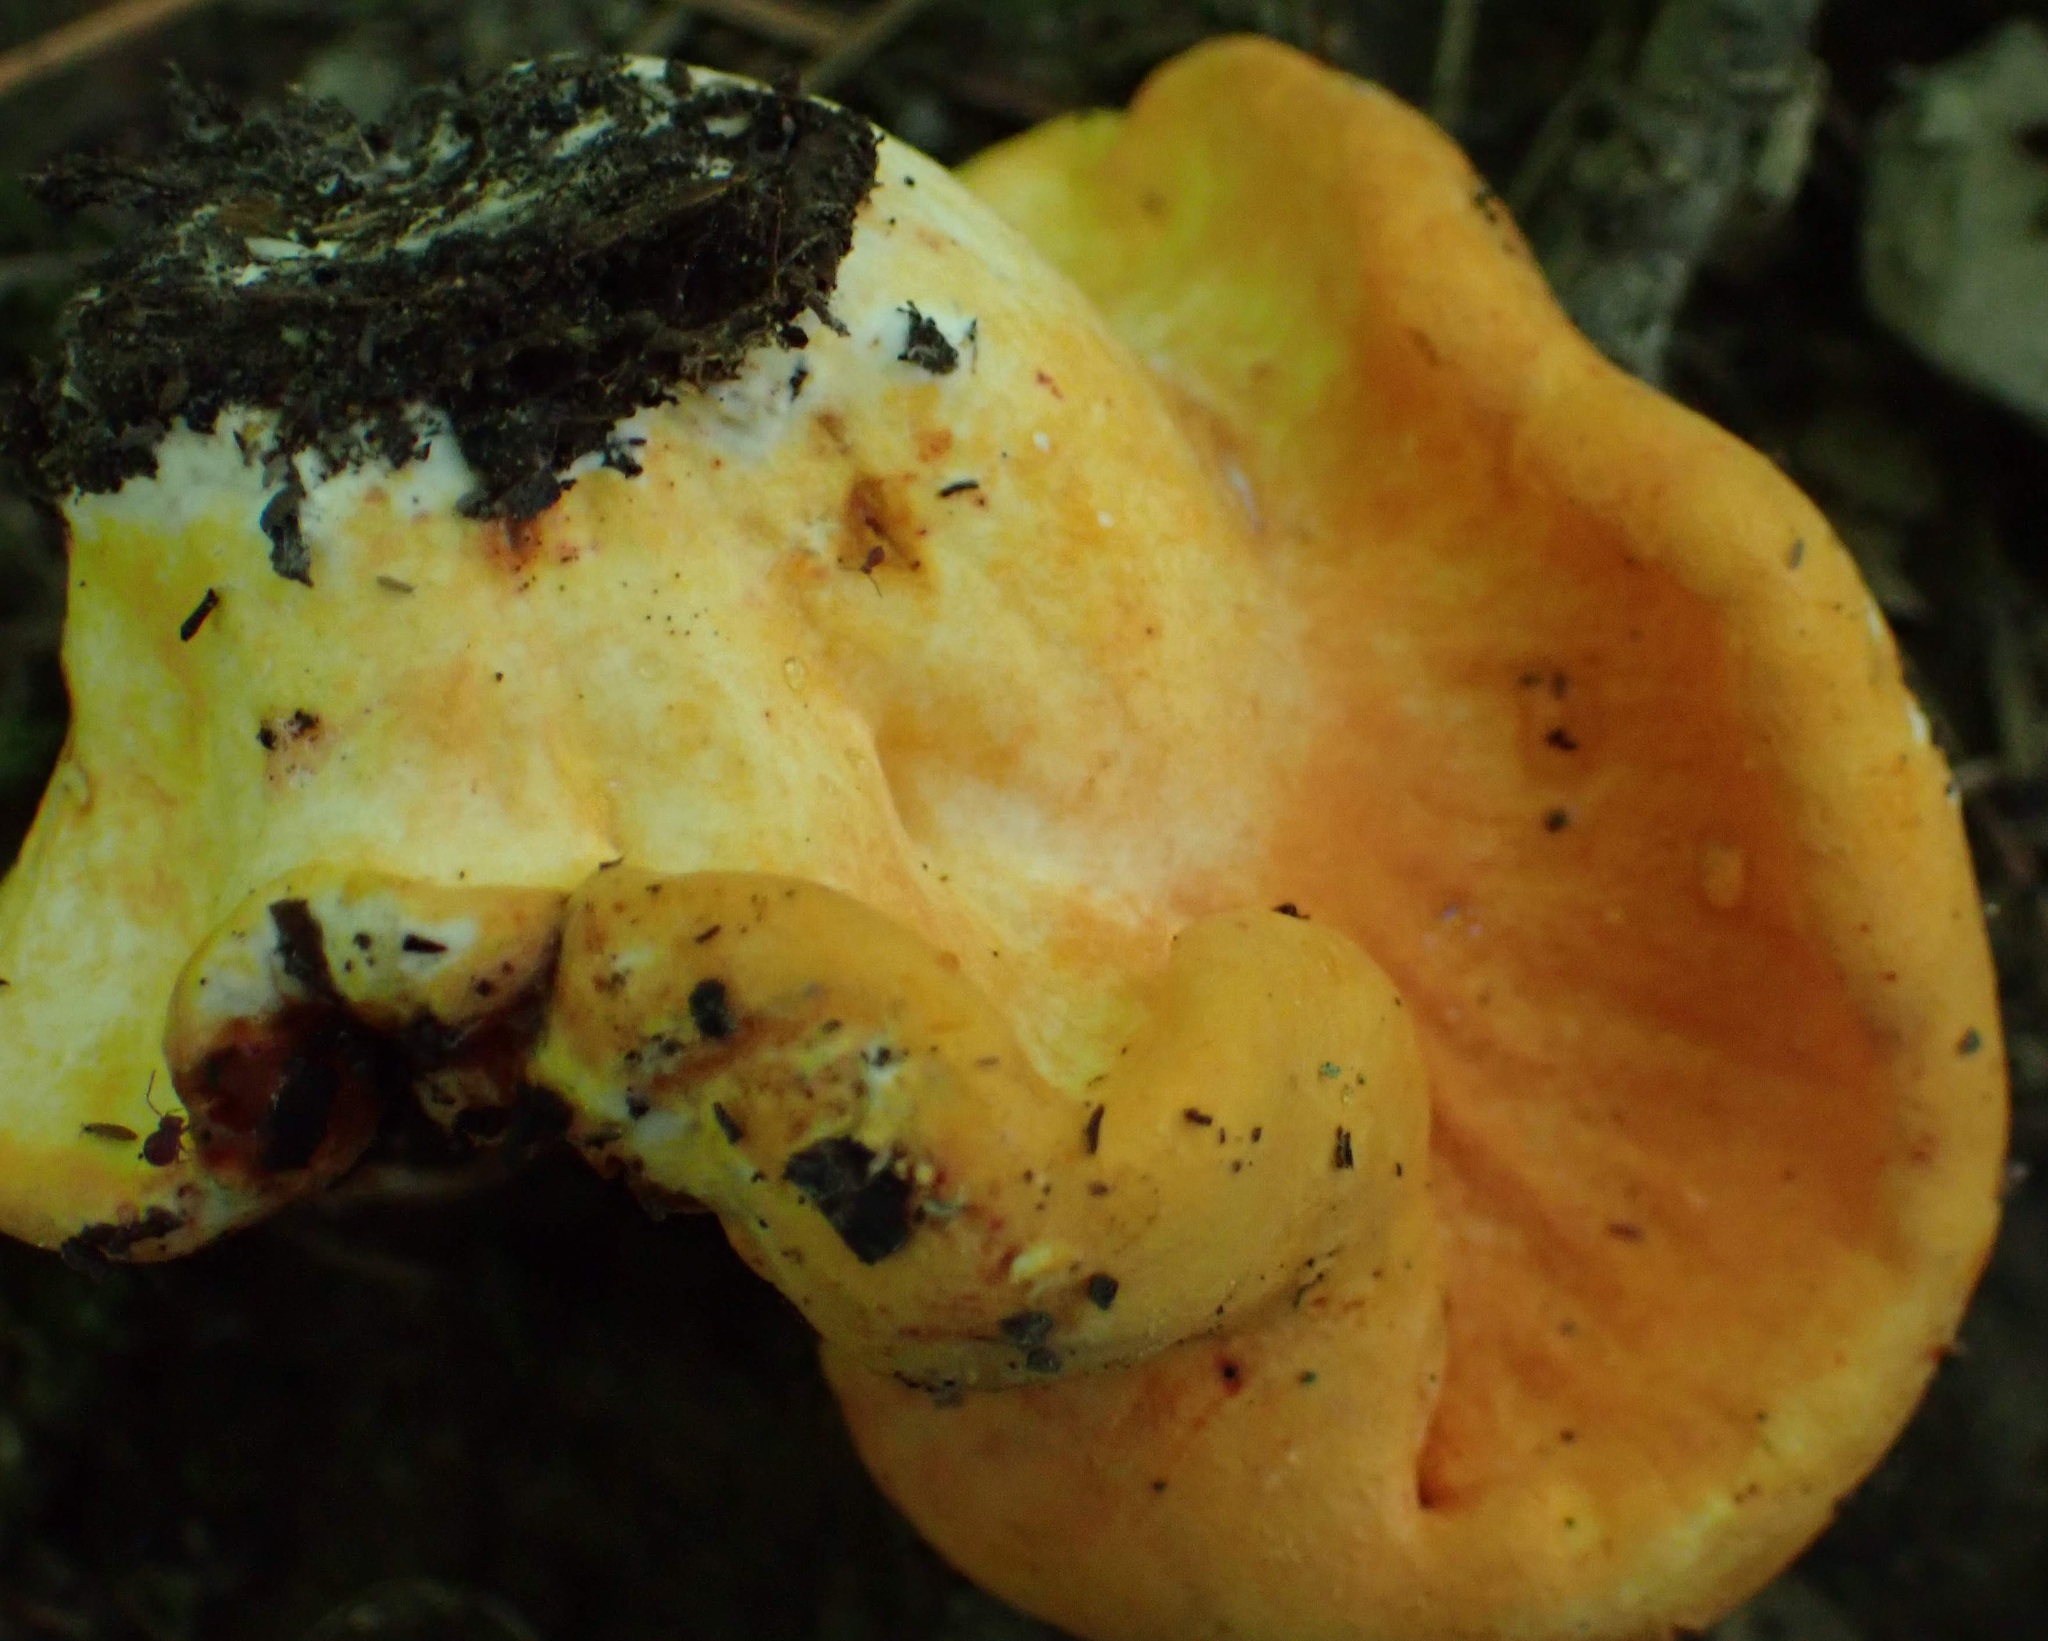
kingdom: Fungi
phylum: Ascomycota
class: Sordariomycetes
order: Hypocreales
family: Hypocreaceae
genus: Hypomyces
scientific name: Hypomyces lactifluorum
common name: Lobster mushroom
